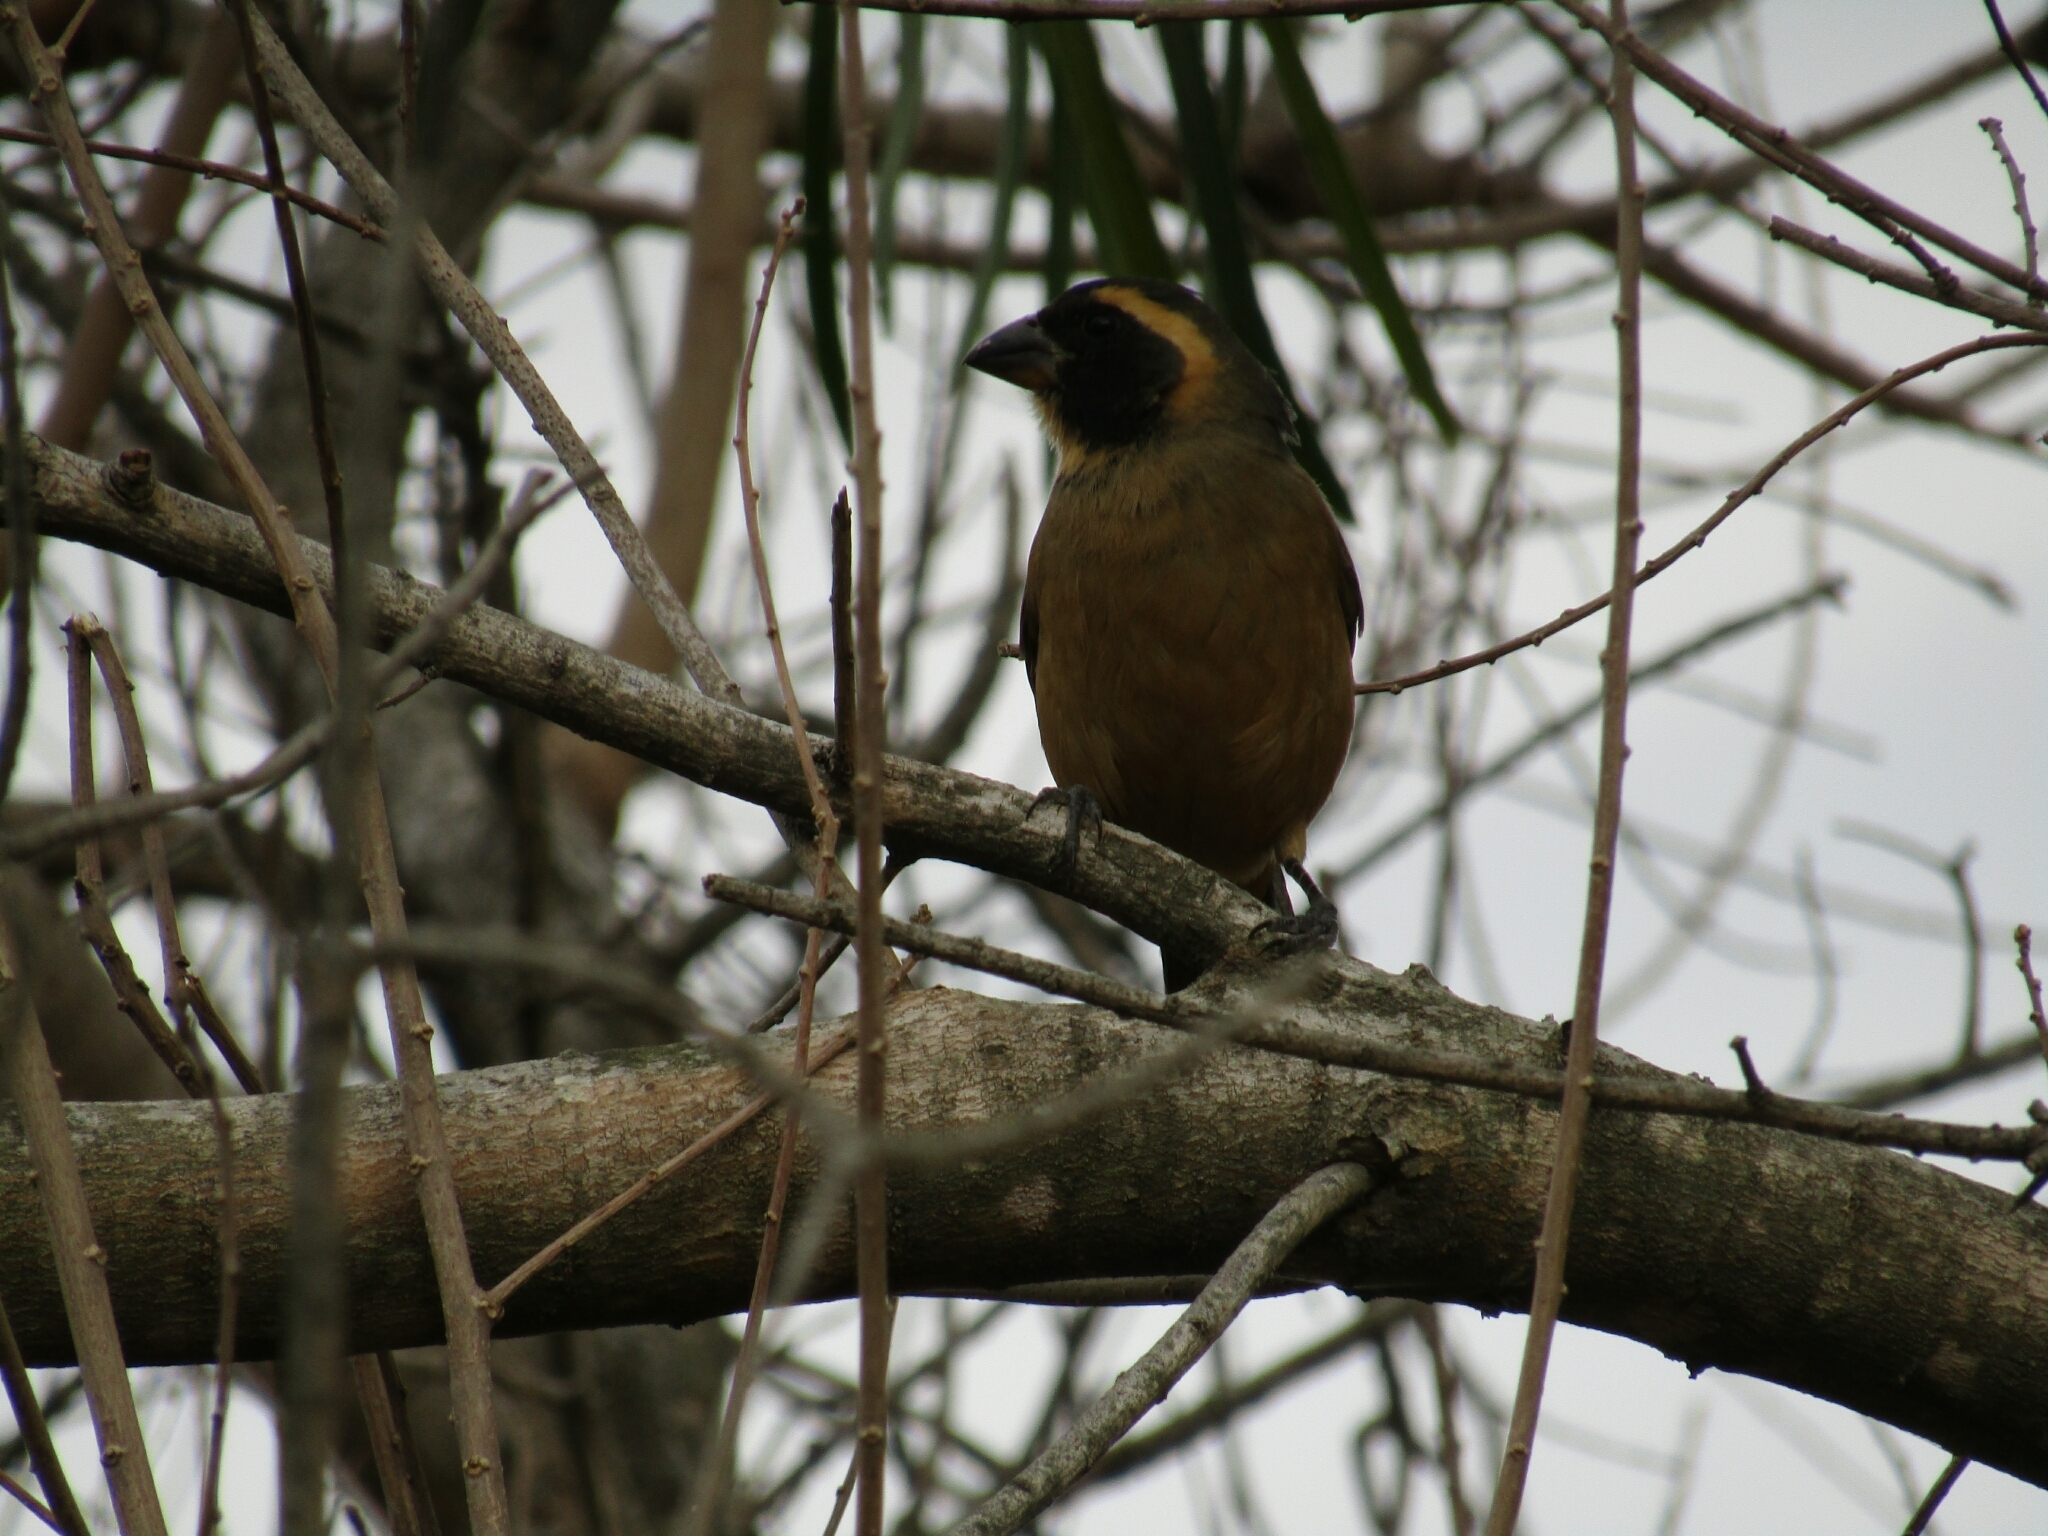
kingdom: Animalia
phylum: Chordata
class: Aves
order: Passeriformes
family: Thraupidae
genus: Saltator
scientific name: Saltator aurantiirostris
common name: Golden-billed saltator
